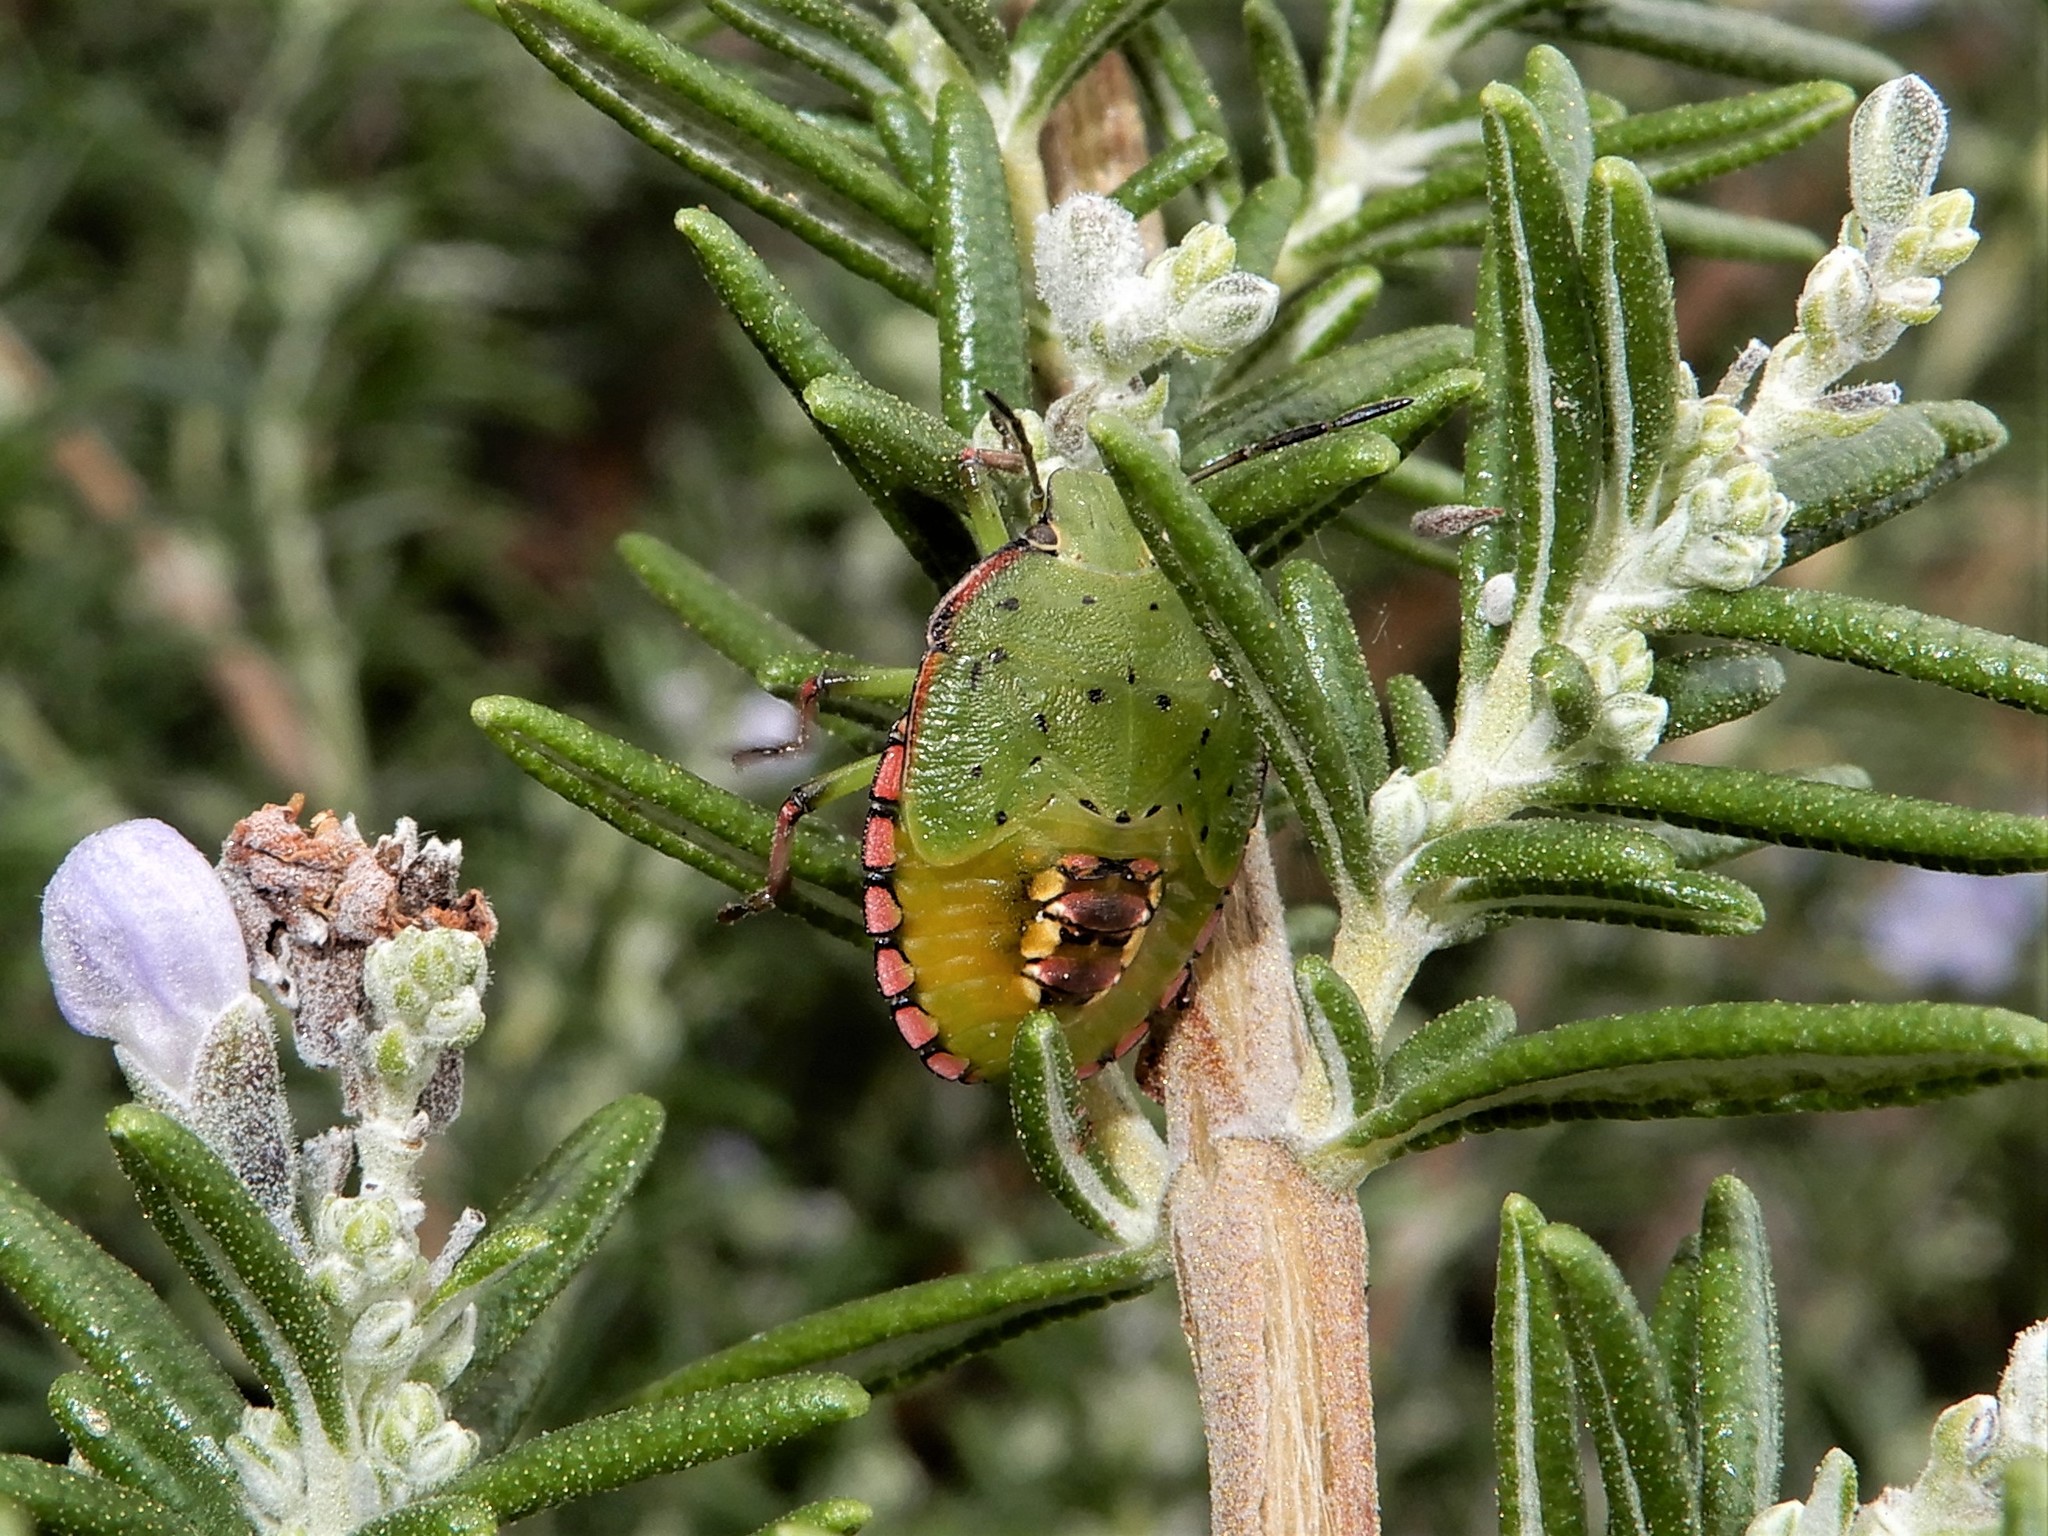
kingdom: Animalia
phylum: Arthropoda
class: Insecta
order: Hemiptera
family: Pentatomidae
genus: Nezara
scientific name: Nezara viridula
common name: Southern green stink bug
